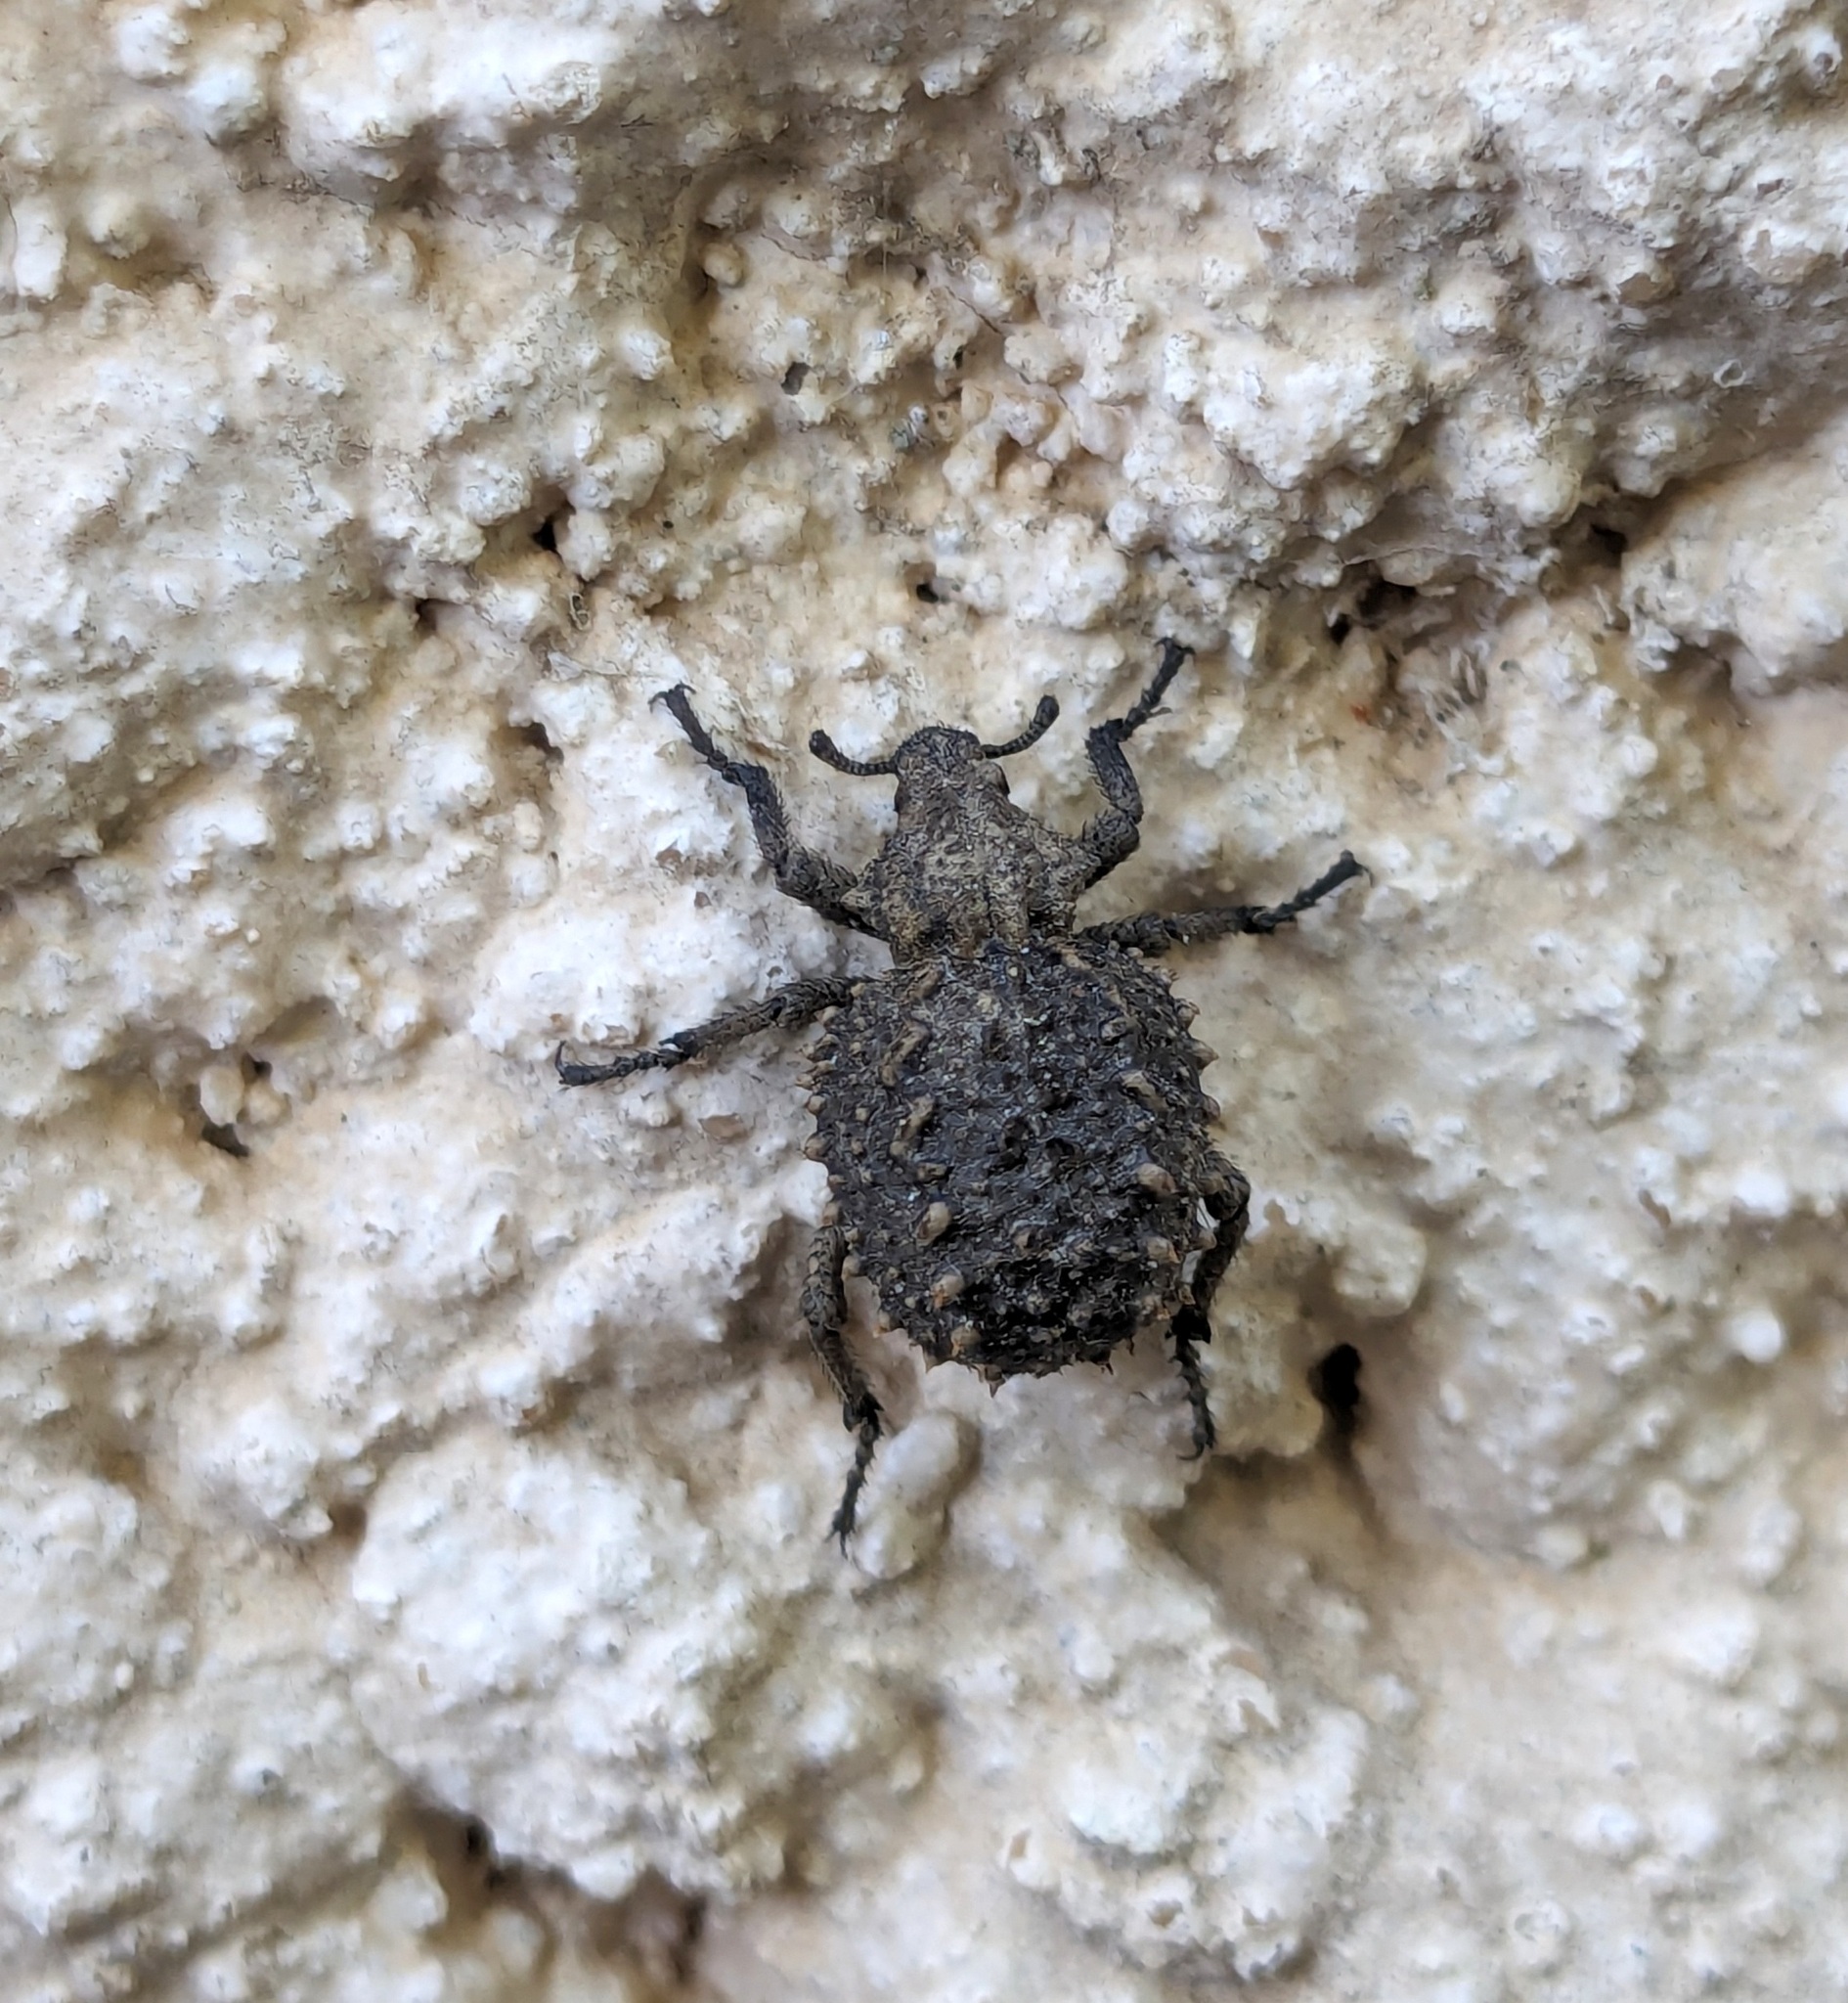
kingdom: Animalia
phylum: Arthropoda
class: Insecta
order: Coleoptera
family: Brachyceridae
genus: Brachycerus
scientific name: Brachycerus muricatus
